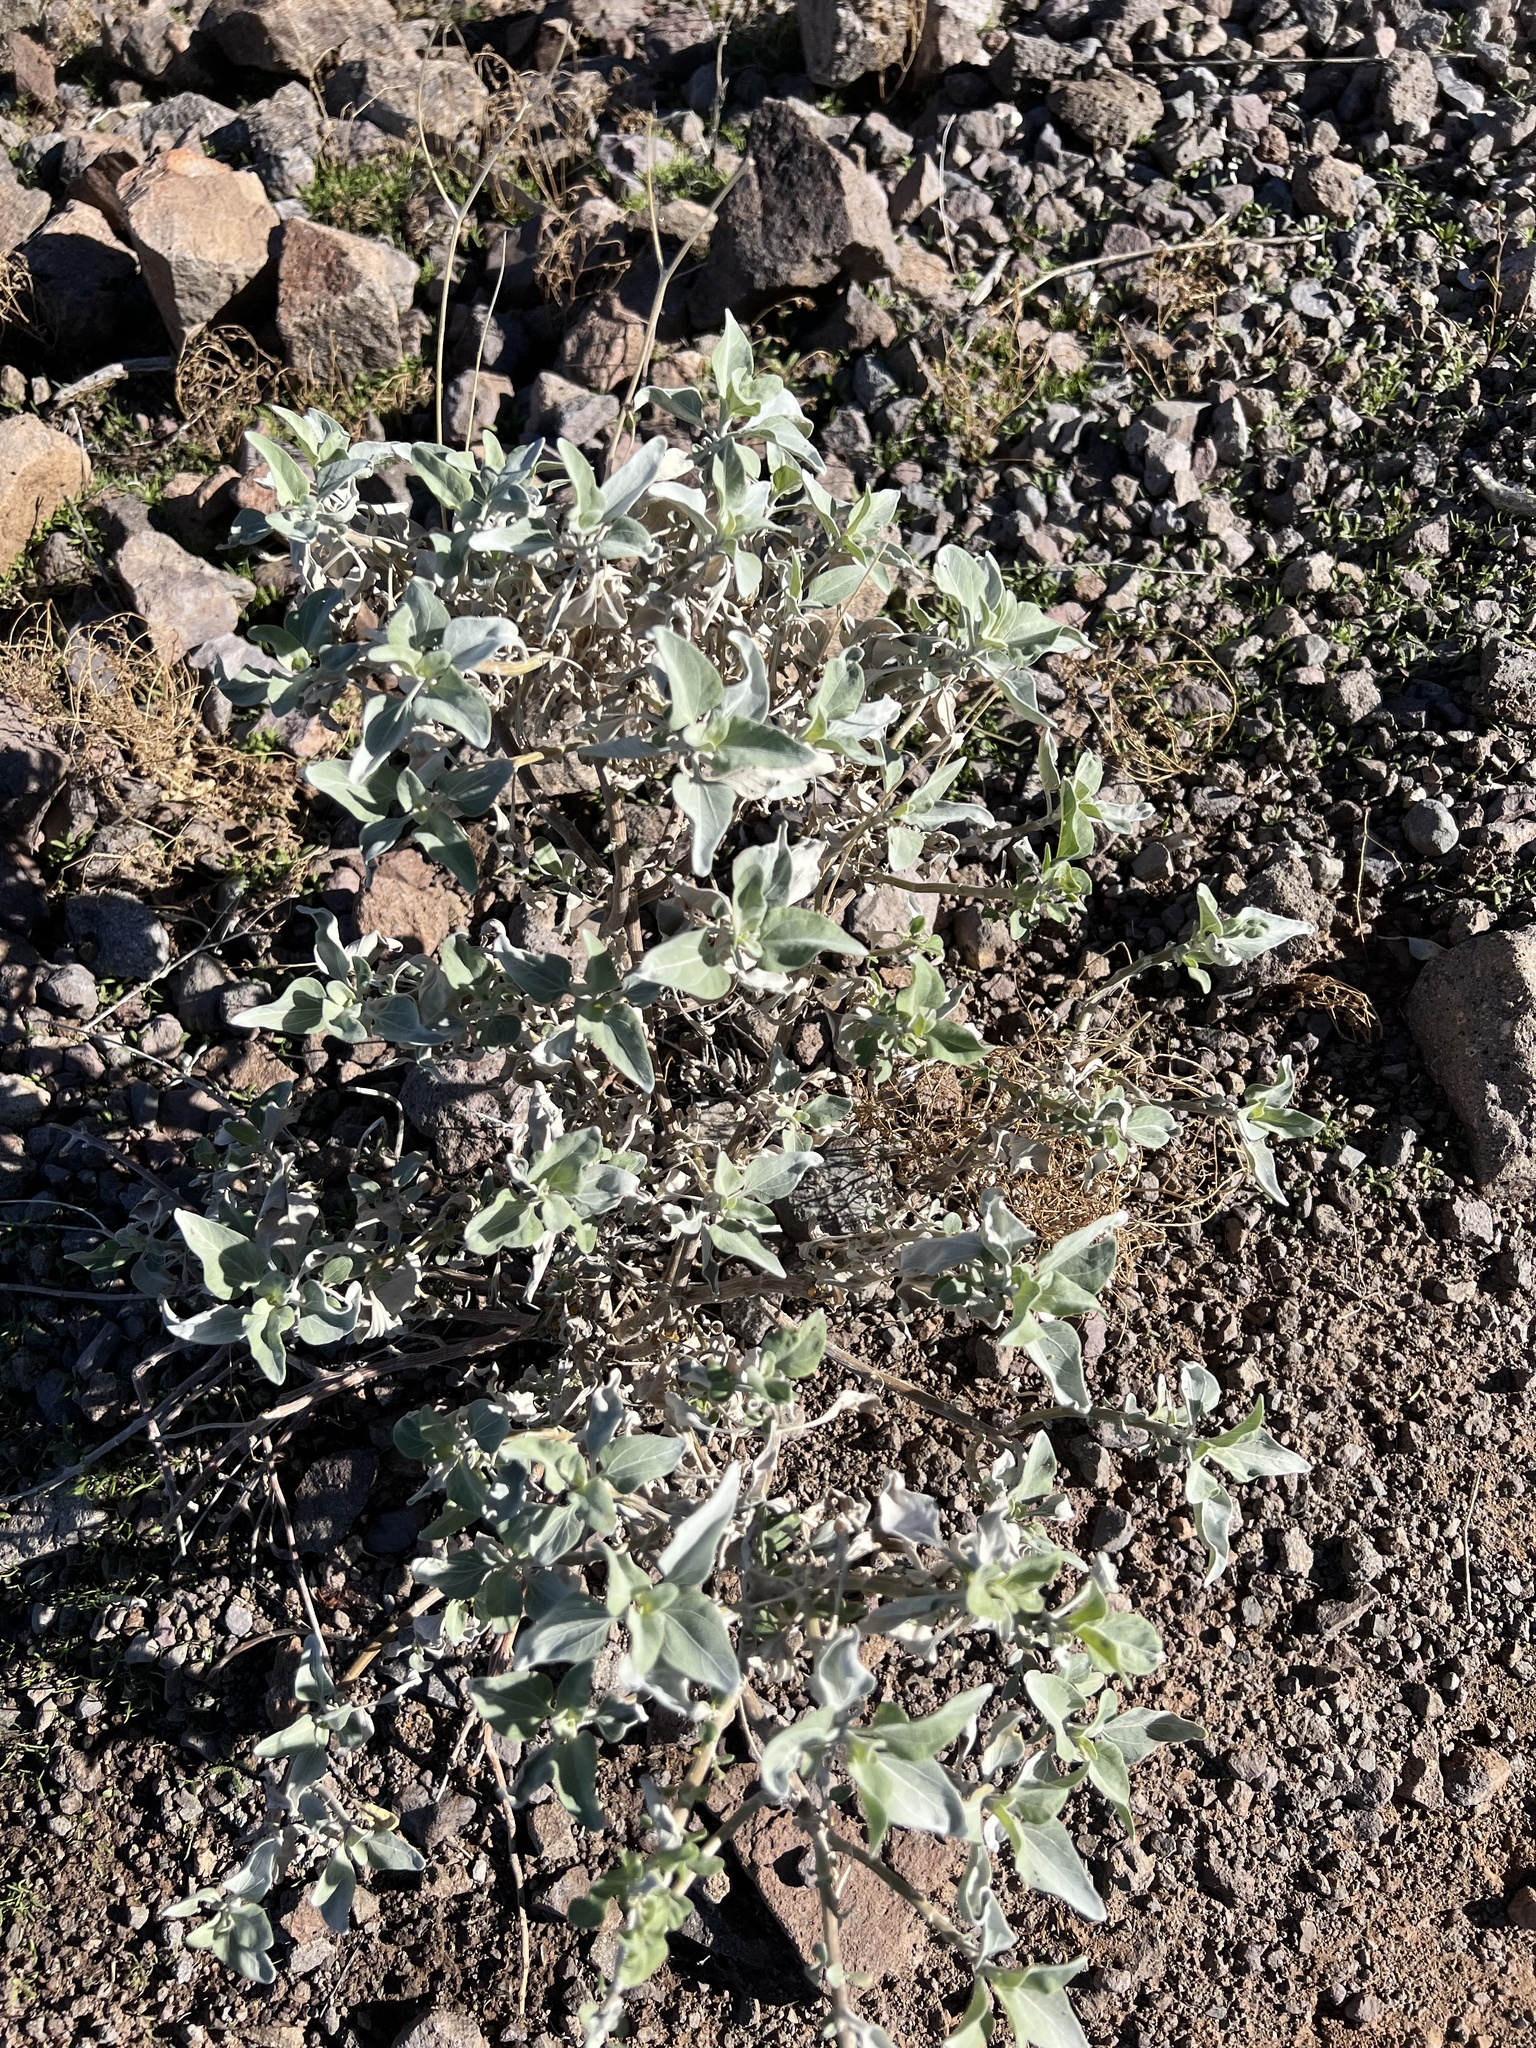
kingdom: Plantae
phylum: Tracheophyta
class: Magnoliopsida
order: Asterales
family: Asteraceae
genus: Ambrosia
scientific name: Ambrosia deltoidea
